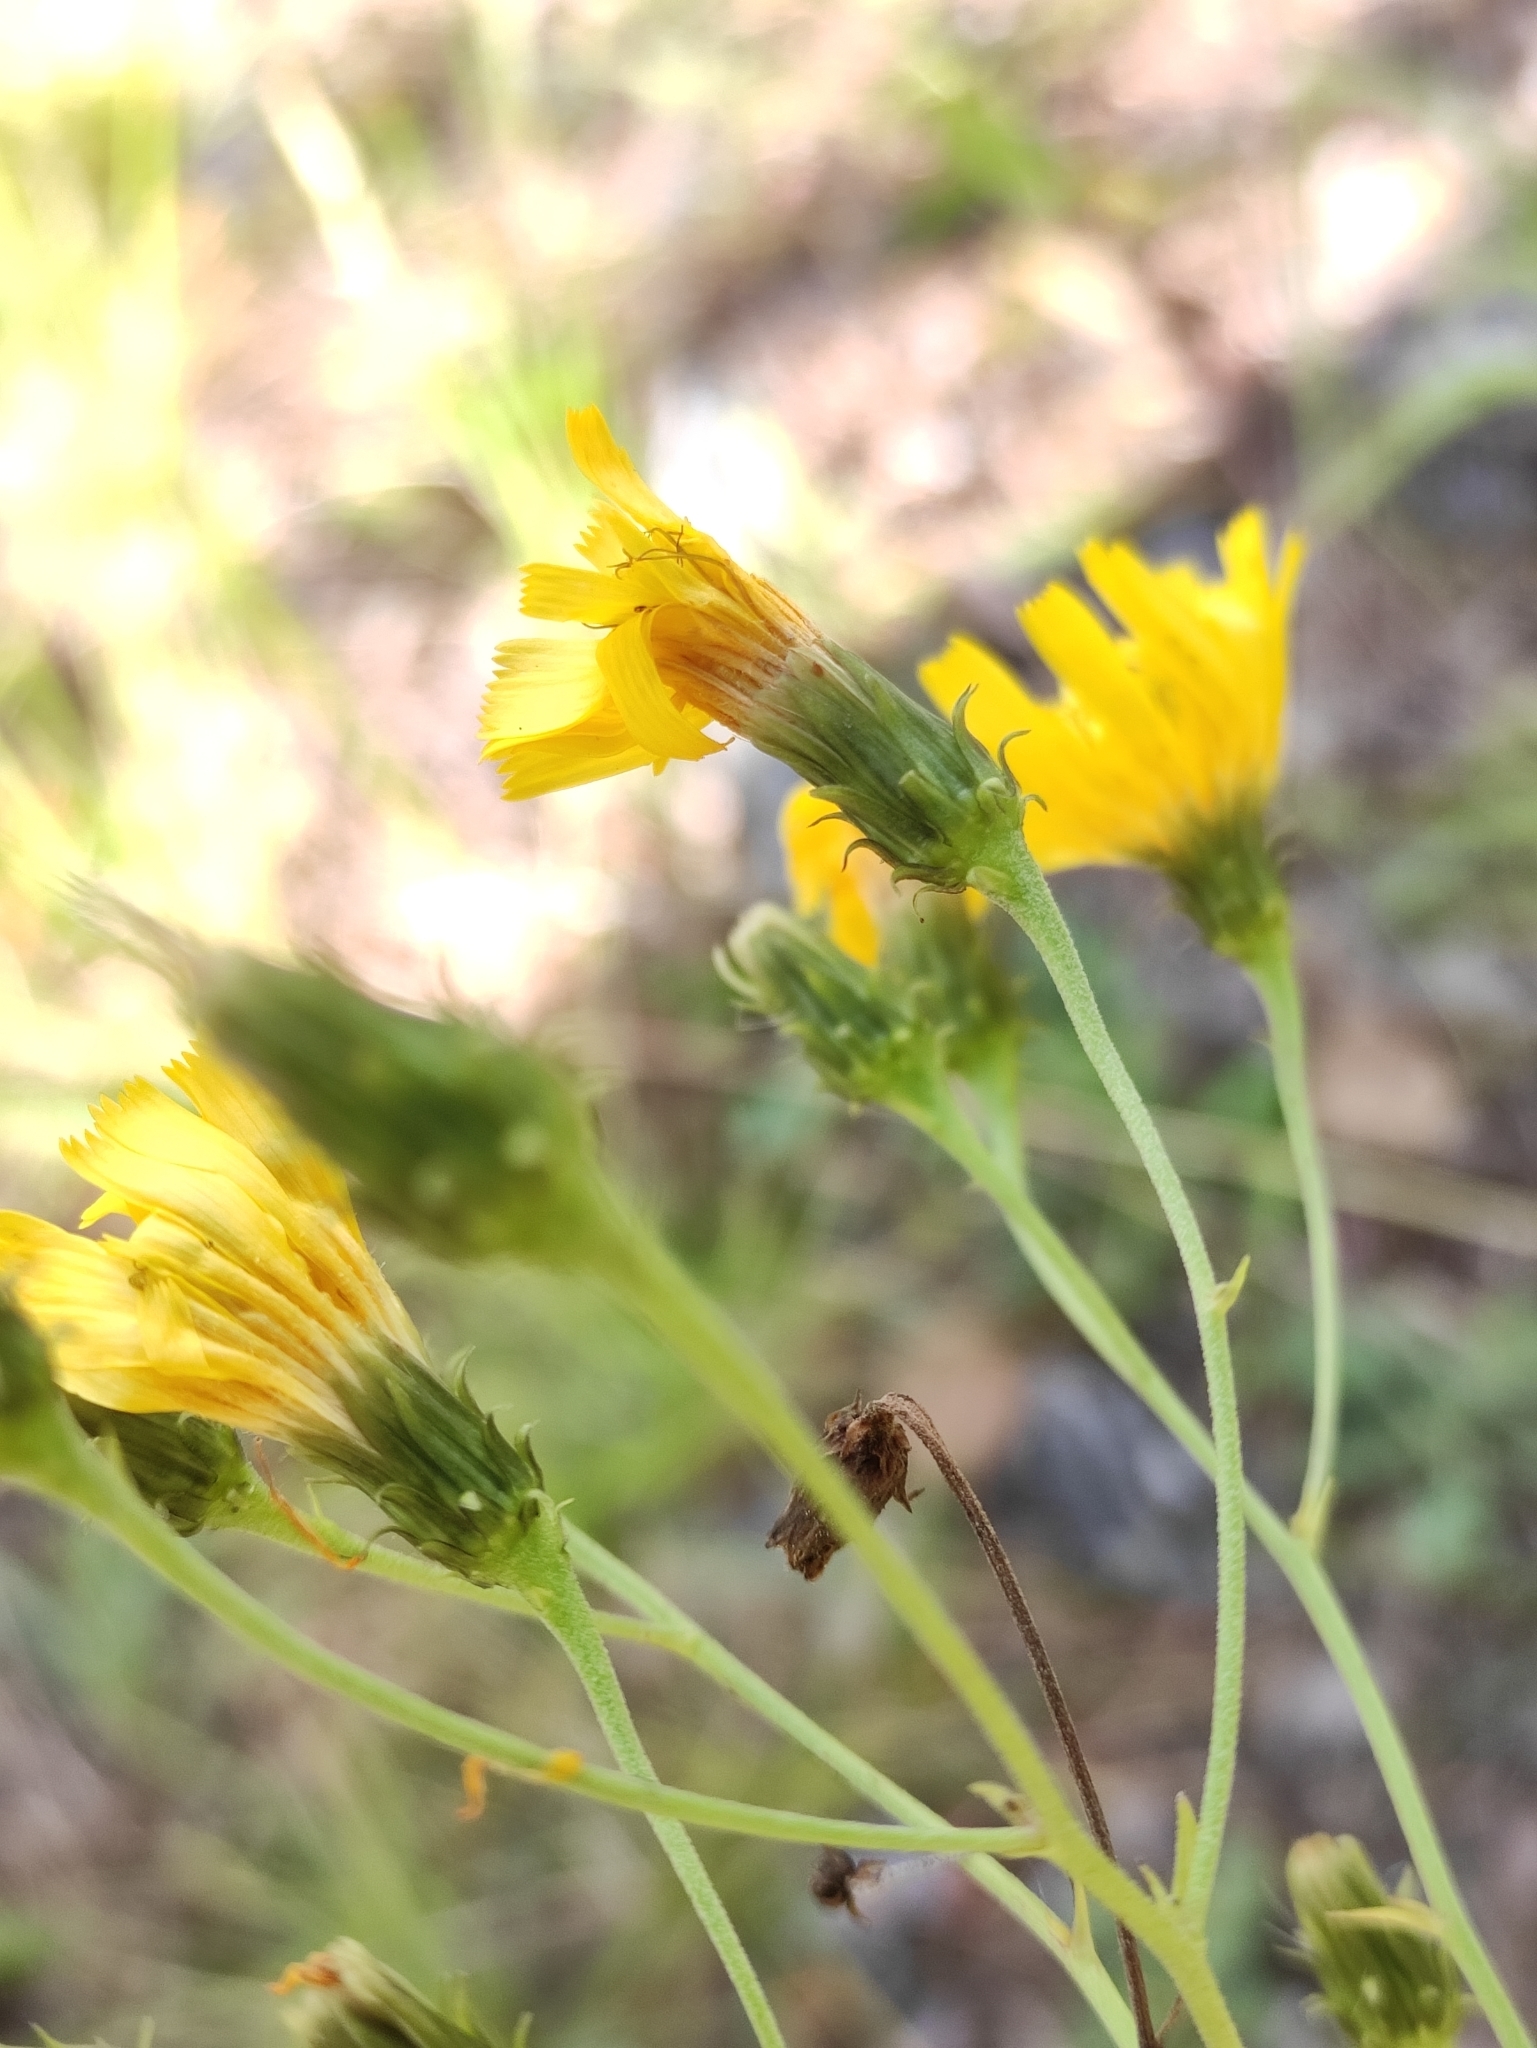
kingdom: Plantae
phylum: Tracheophyta
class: Magnoliopsida
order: Asterales
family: Asteraceae
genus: Hieracium
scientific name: Hieracium umbellatum
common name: Northern hawkweed
